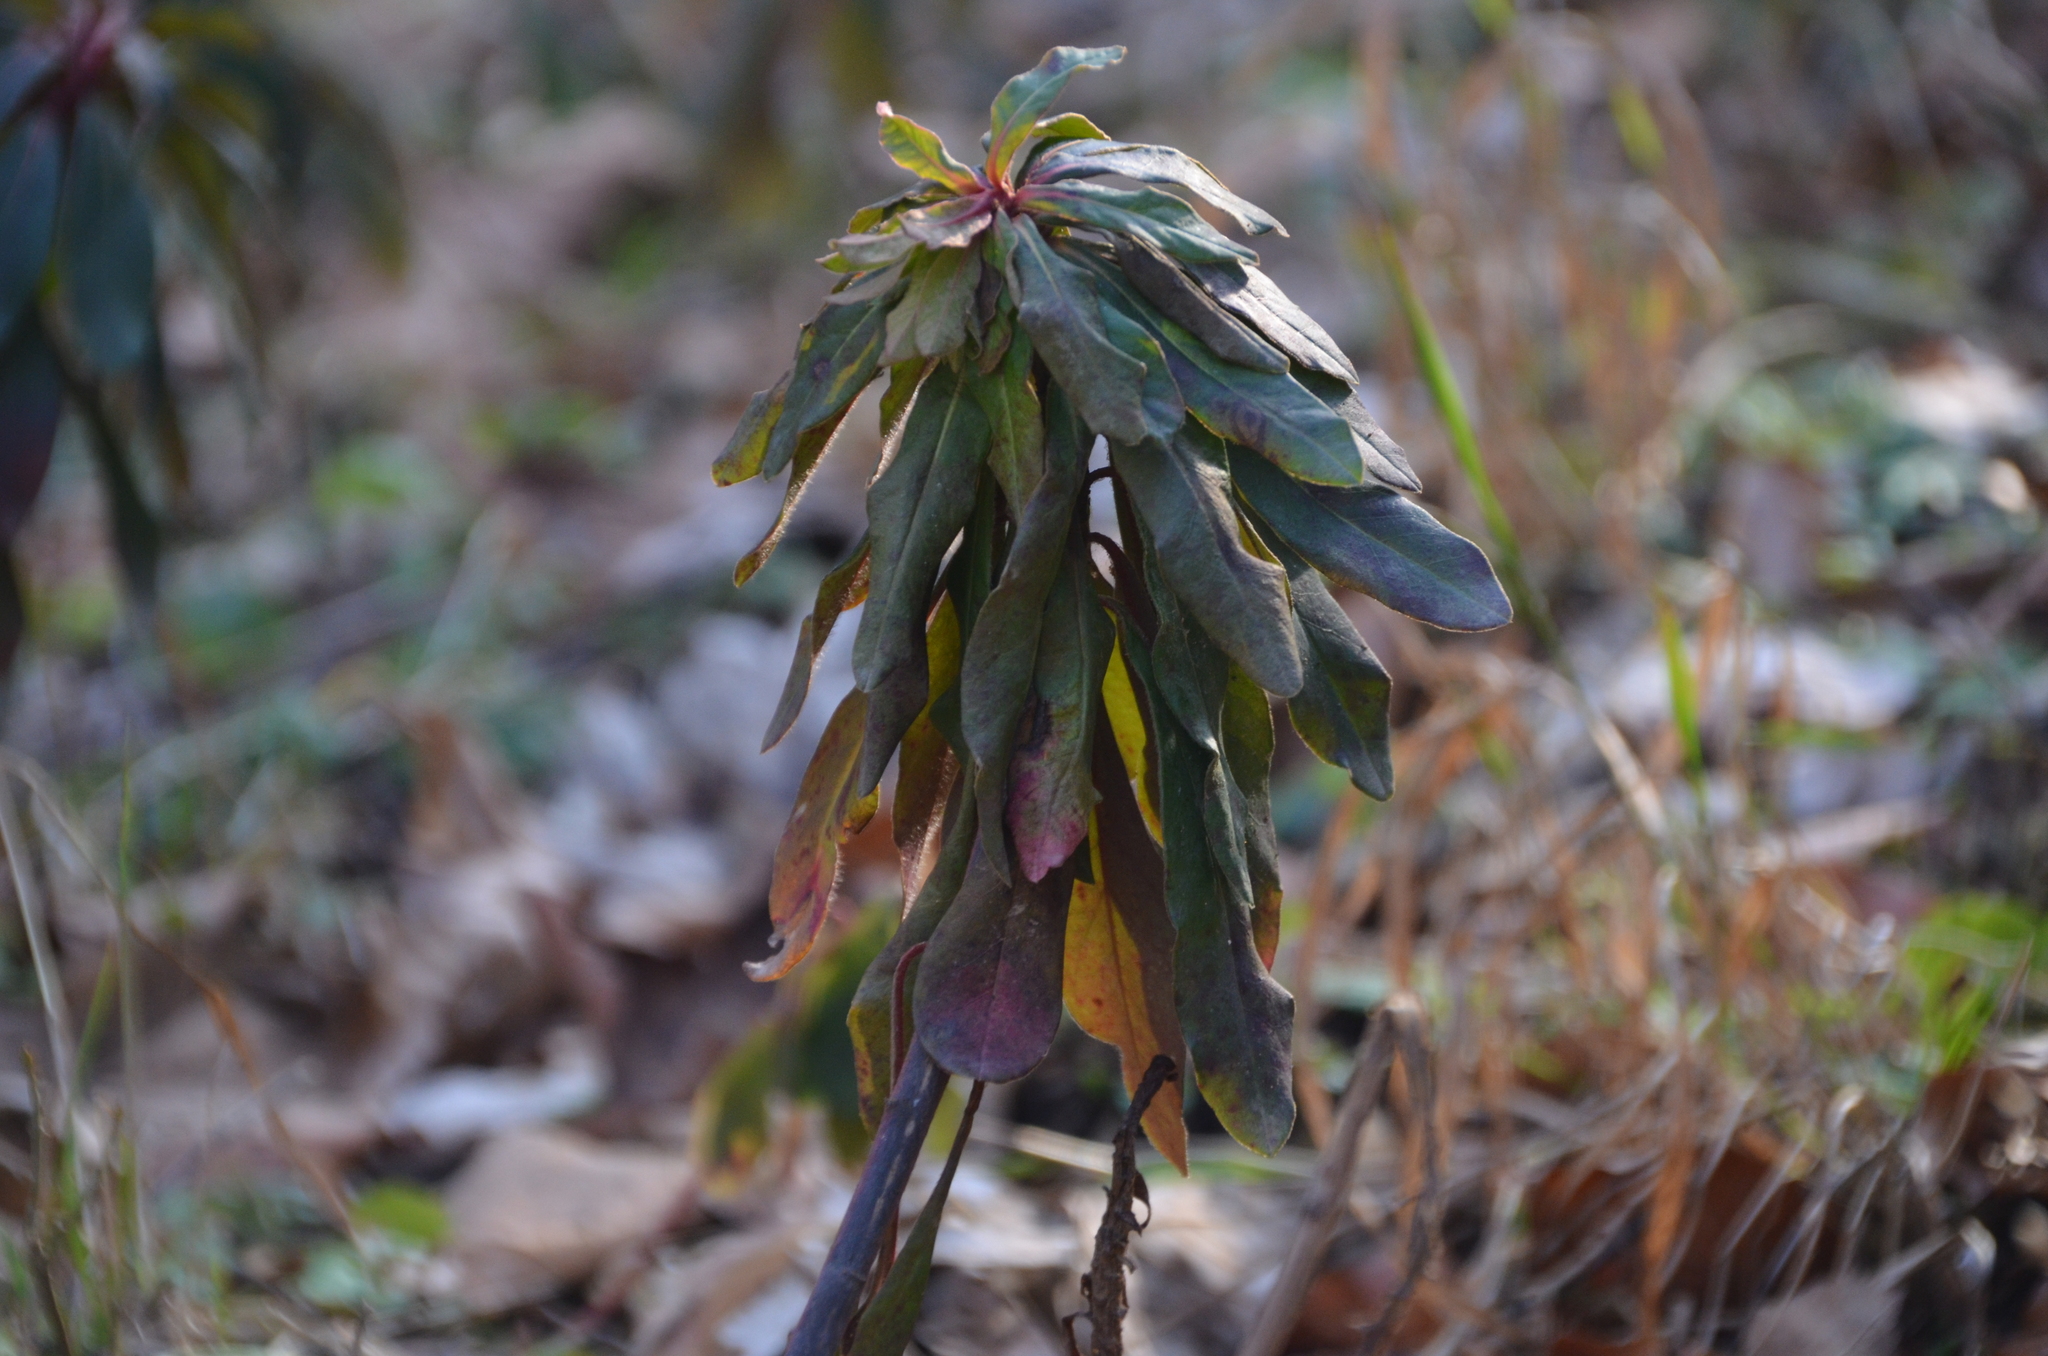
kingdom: Plantae
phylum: Tracheophyta
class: Magnoliopsida
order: Malpighiales
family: Euphorbiaceae
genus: Euphorbia
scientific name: Euphorbia amygdaloides
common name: Wood spurge
